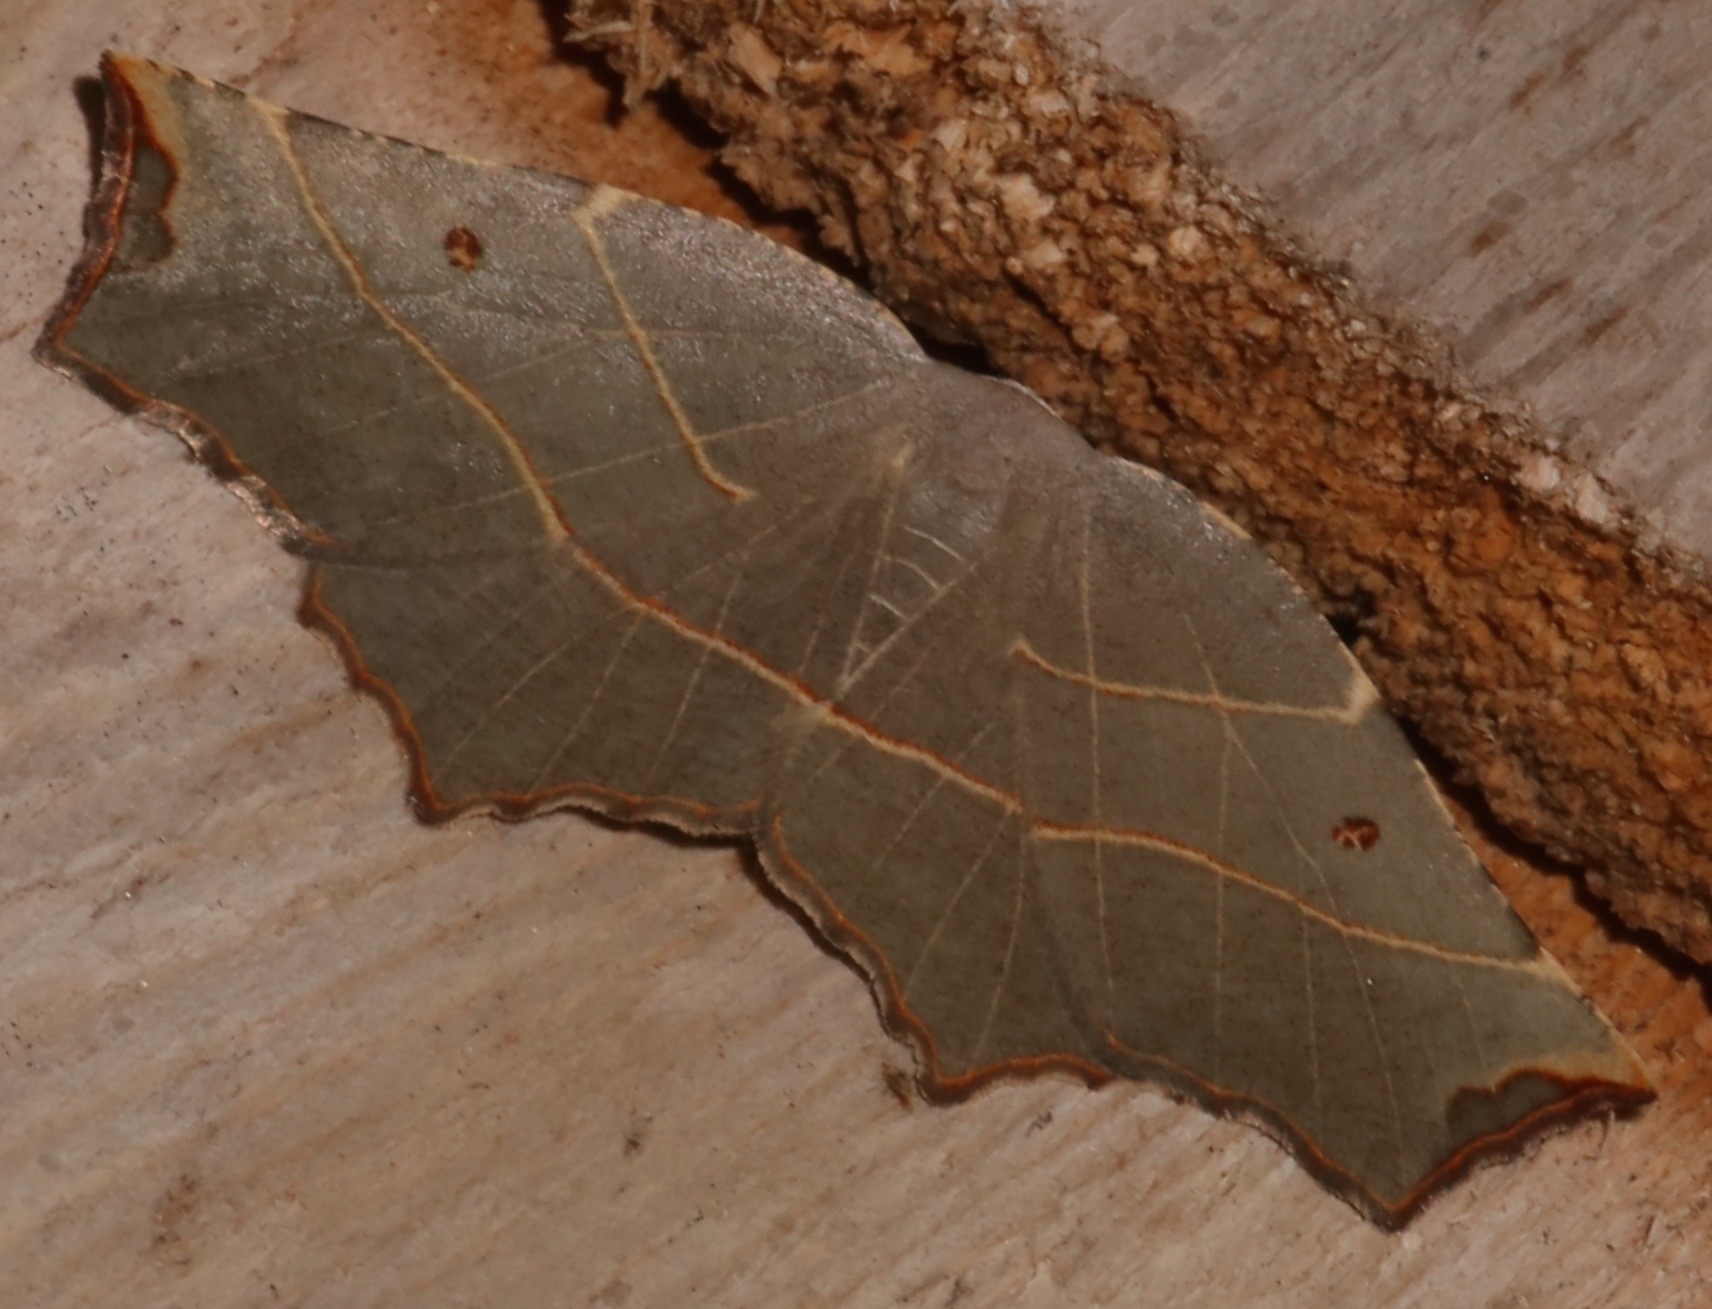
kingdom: Animalia
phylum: Arthropoda
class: Insecta
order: Lepidoptera
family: Geometridae
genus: Metanema
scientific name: Metanema inatomaria
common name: Pale metanema
